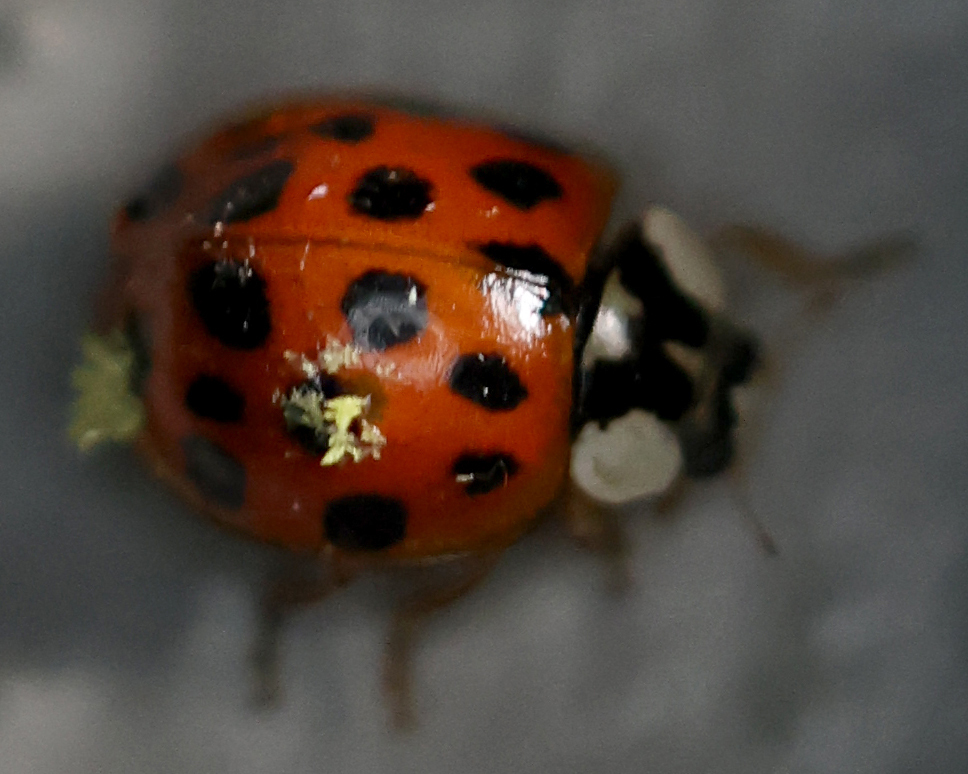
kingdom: Fungi
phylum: Ascomycota
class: Laboulbeniomycetes
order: Laboulbeniales
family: Laboulbeniaceae
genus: Hesperomyces
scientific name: Hesperomyces harmoniae
